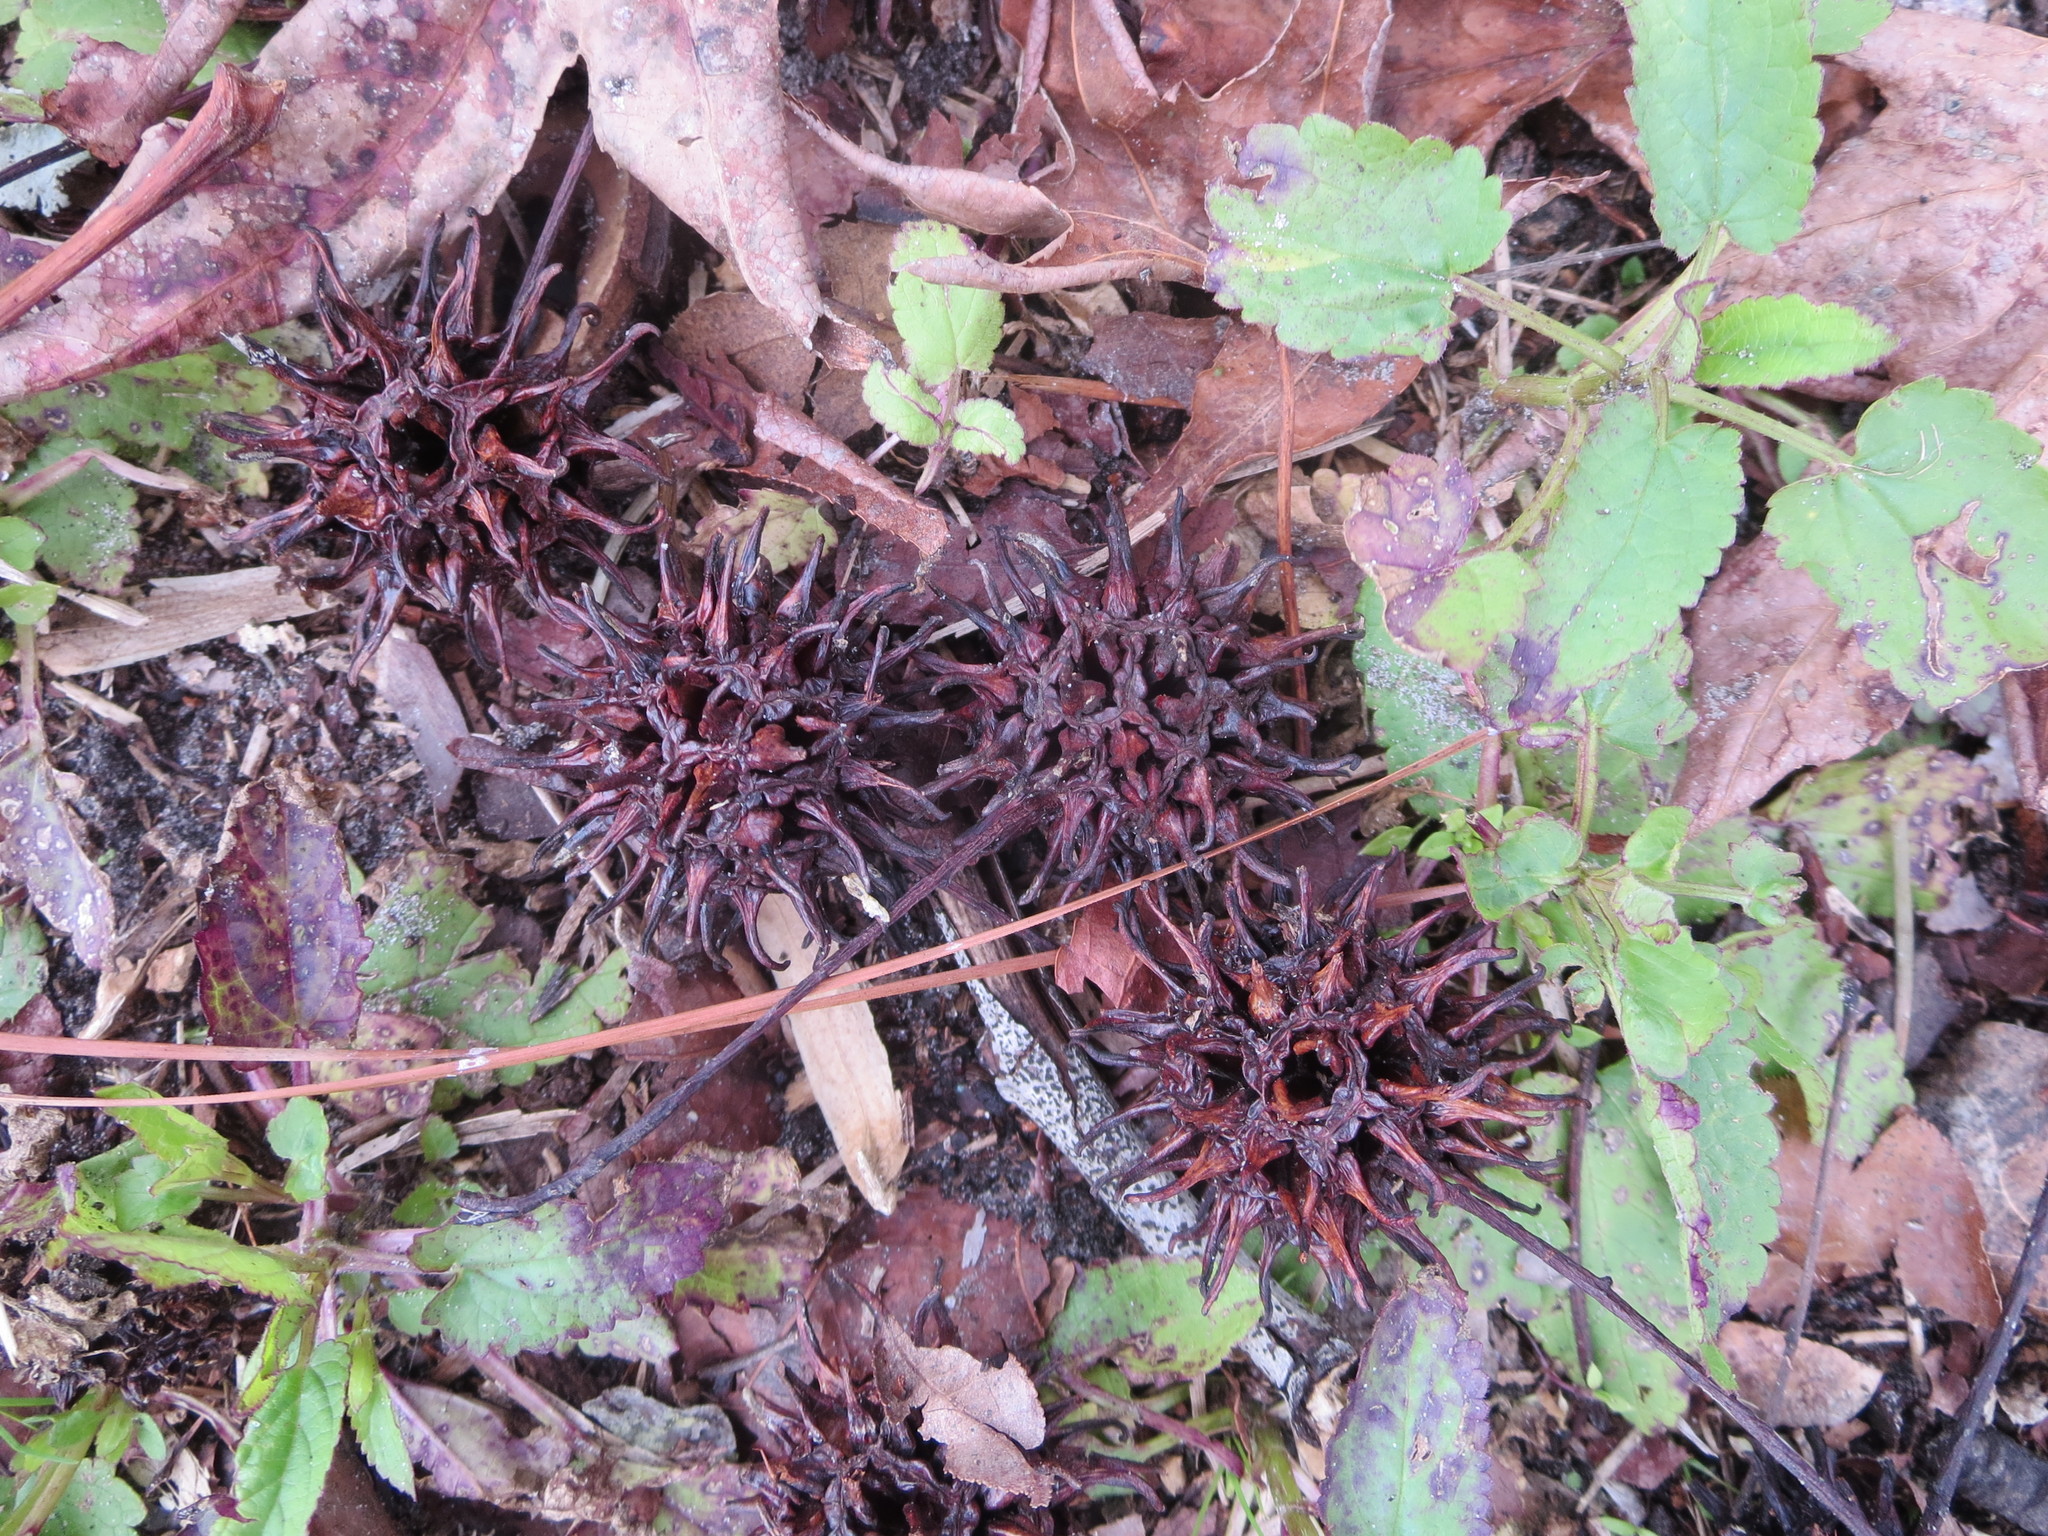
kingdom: Plantae
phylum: Tracheophyta
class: Magnoliopsida
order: Saxifragales
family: Altingiaceae
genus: Liquidambar
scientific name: Liquidambar styraciflua
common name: Sweet gum
